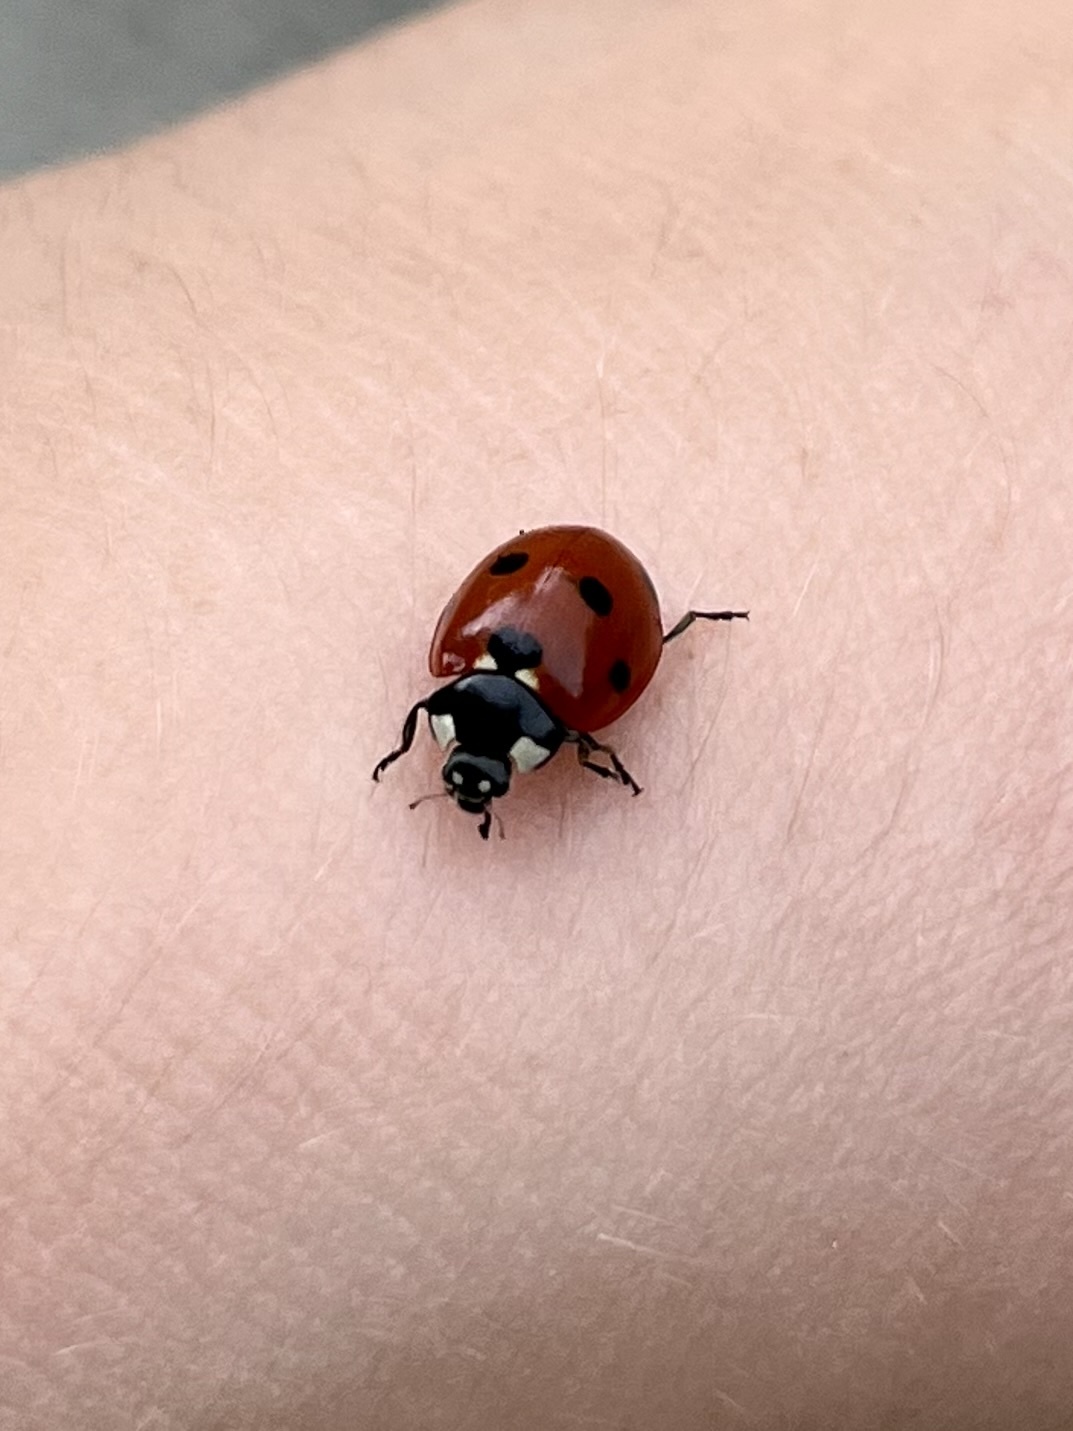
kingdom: Animalia
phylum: Arthropoda
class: Insecta
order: Coleoptera
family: Coccinellidae
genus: Coccinella
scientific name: Coccinella septempunctata
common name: Sevenspotted lady beetle
